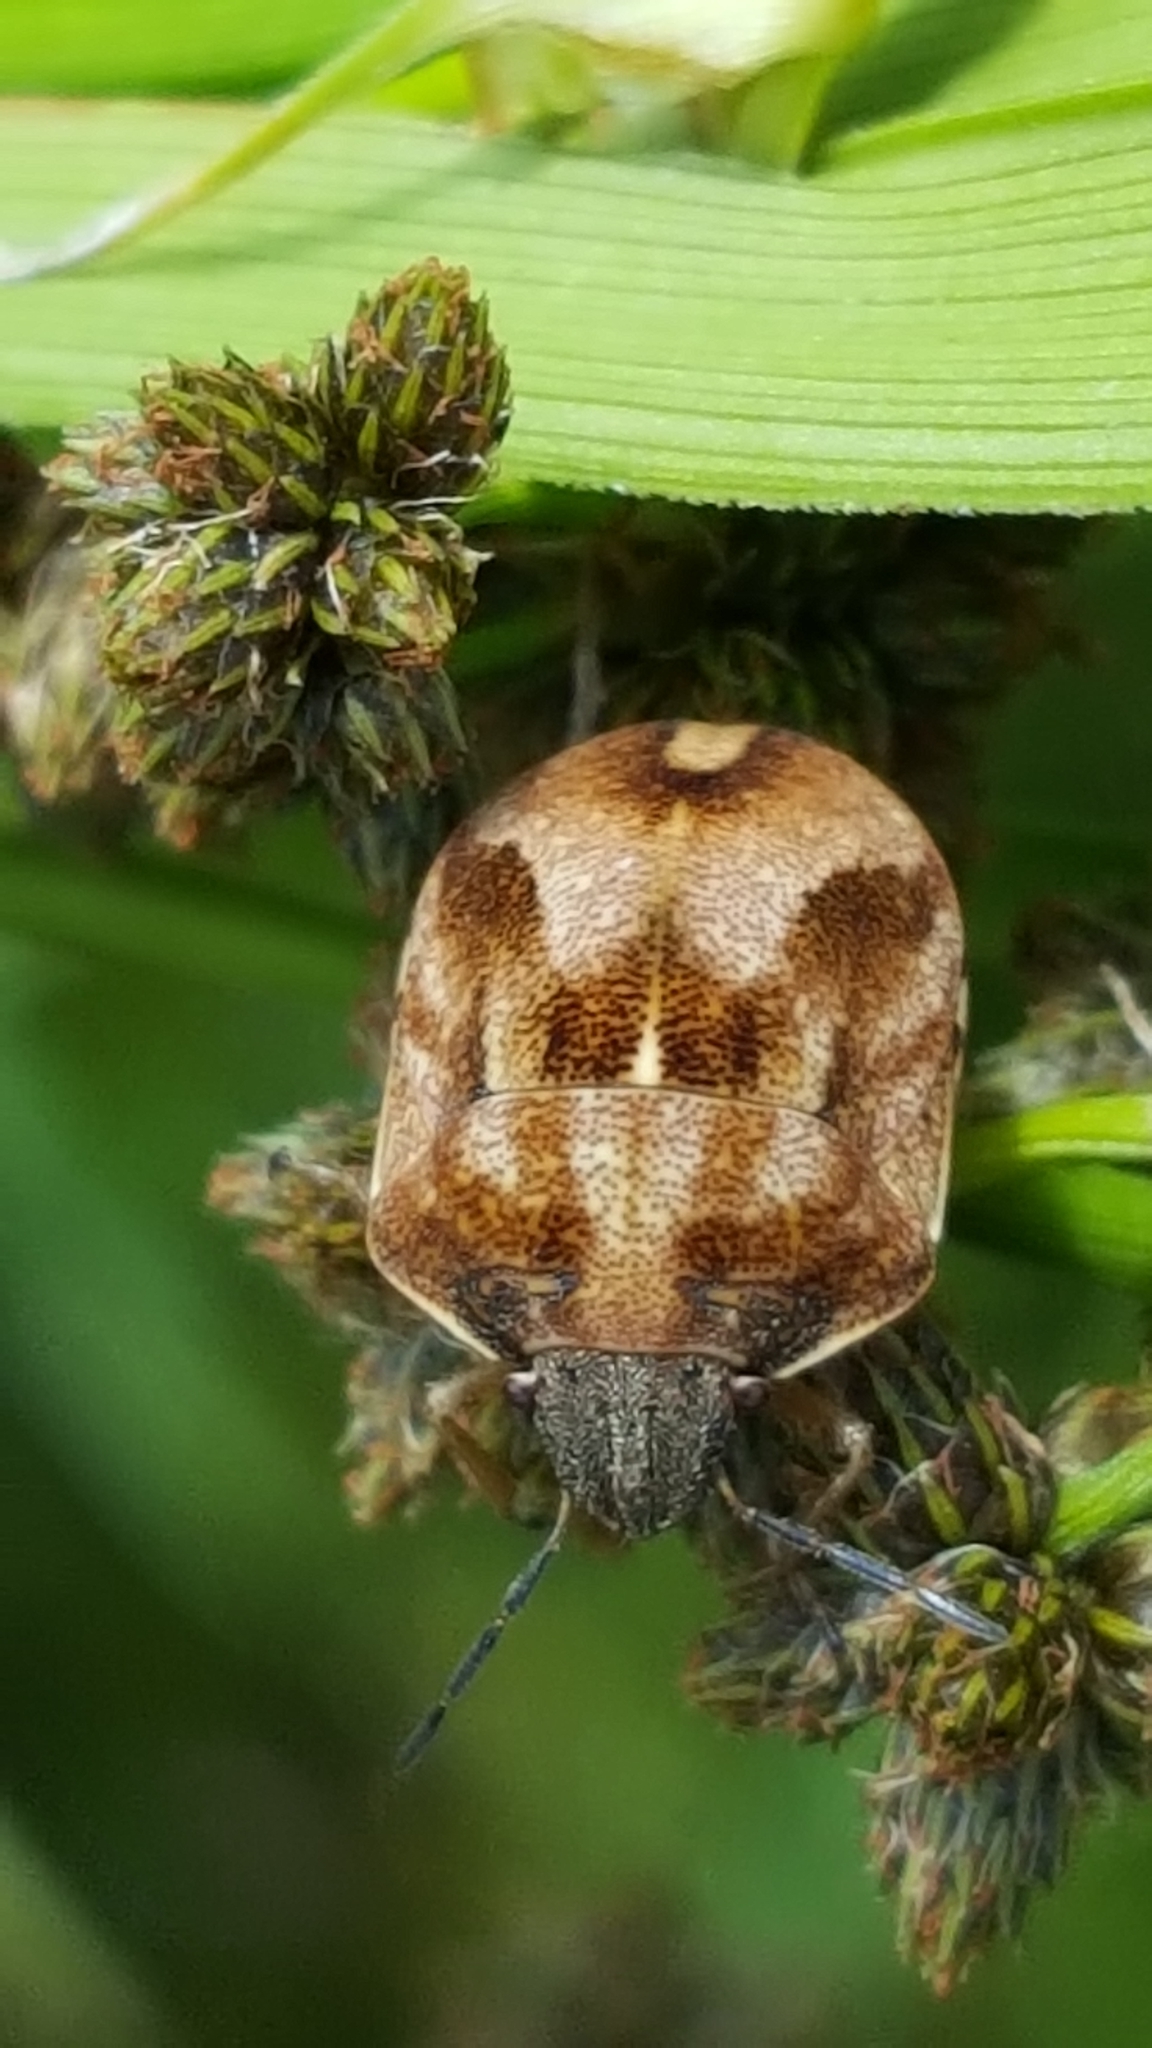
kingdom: Animalia
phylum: Arthropoda
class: Insecta
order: Hemiptera
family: Scutelleridae
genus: Homaemus
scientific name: Homaemus aeneifrons
